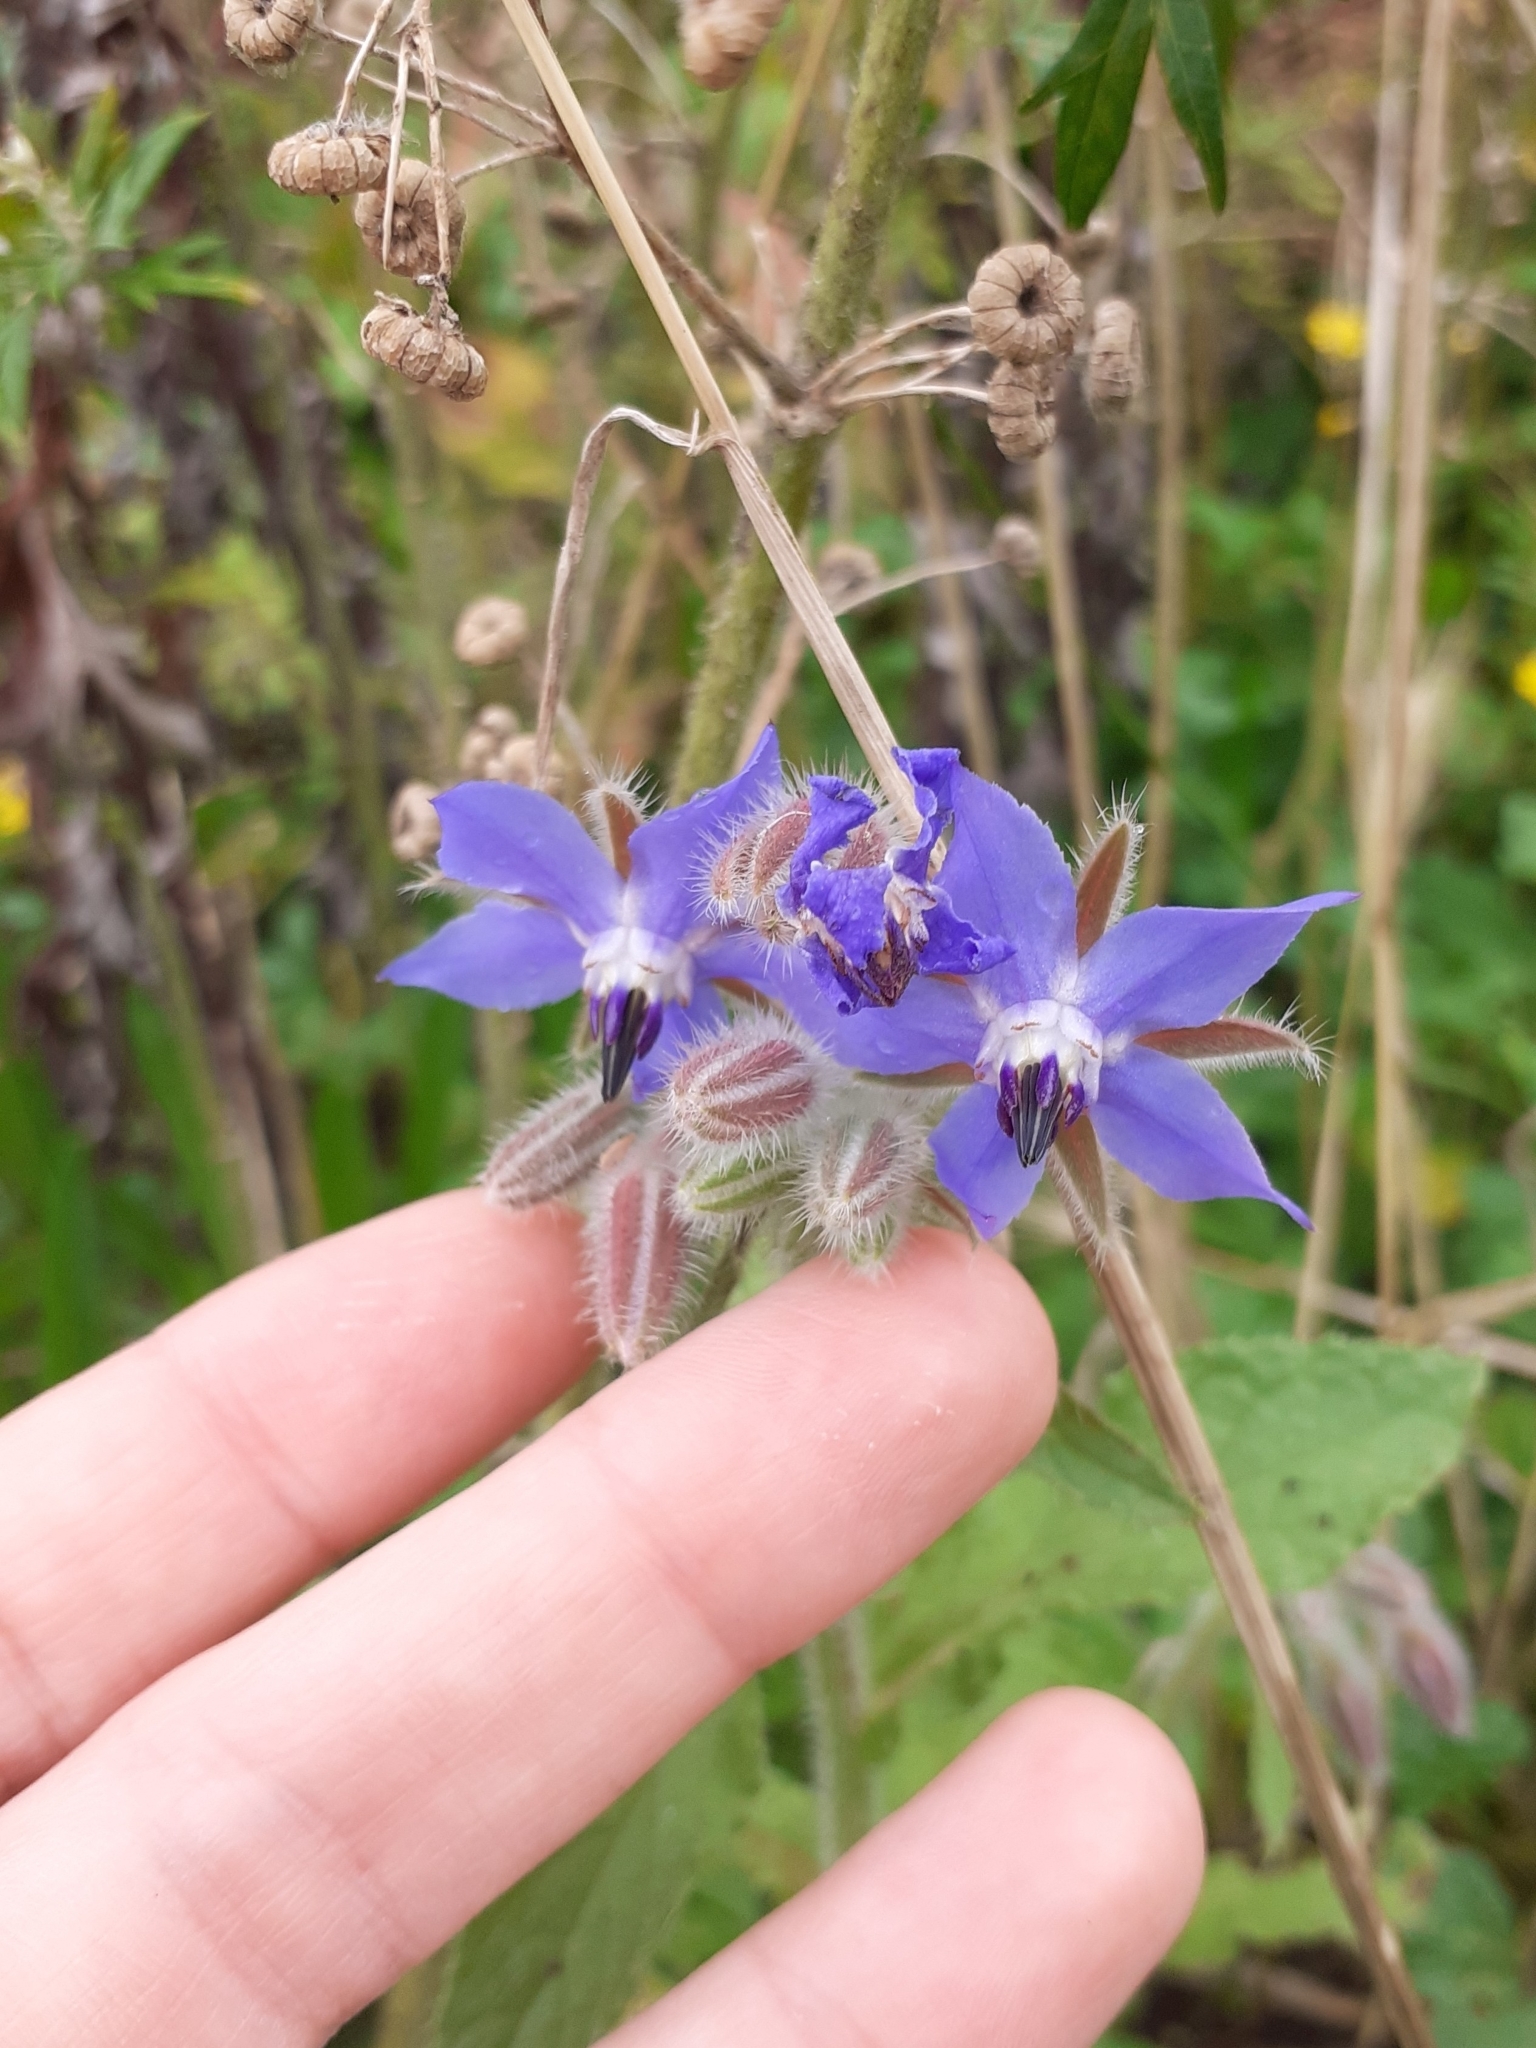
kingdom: Plantae
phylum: Tracheophyta
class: Magnoliopsida
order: Boraginales
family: Boraginaceae
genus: Borago
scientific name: Borago officinalis
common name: Borage
